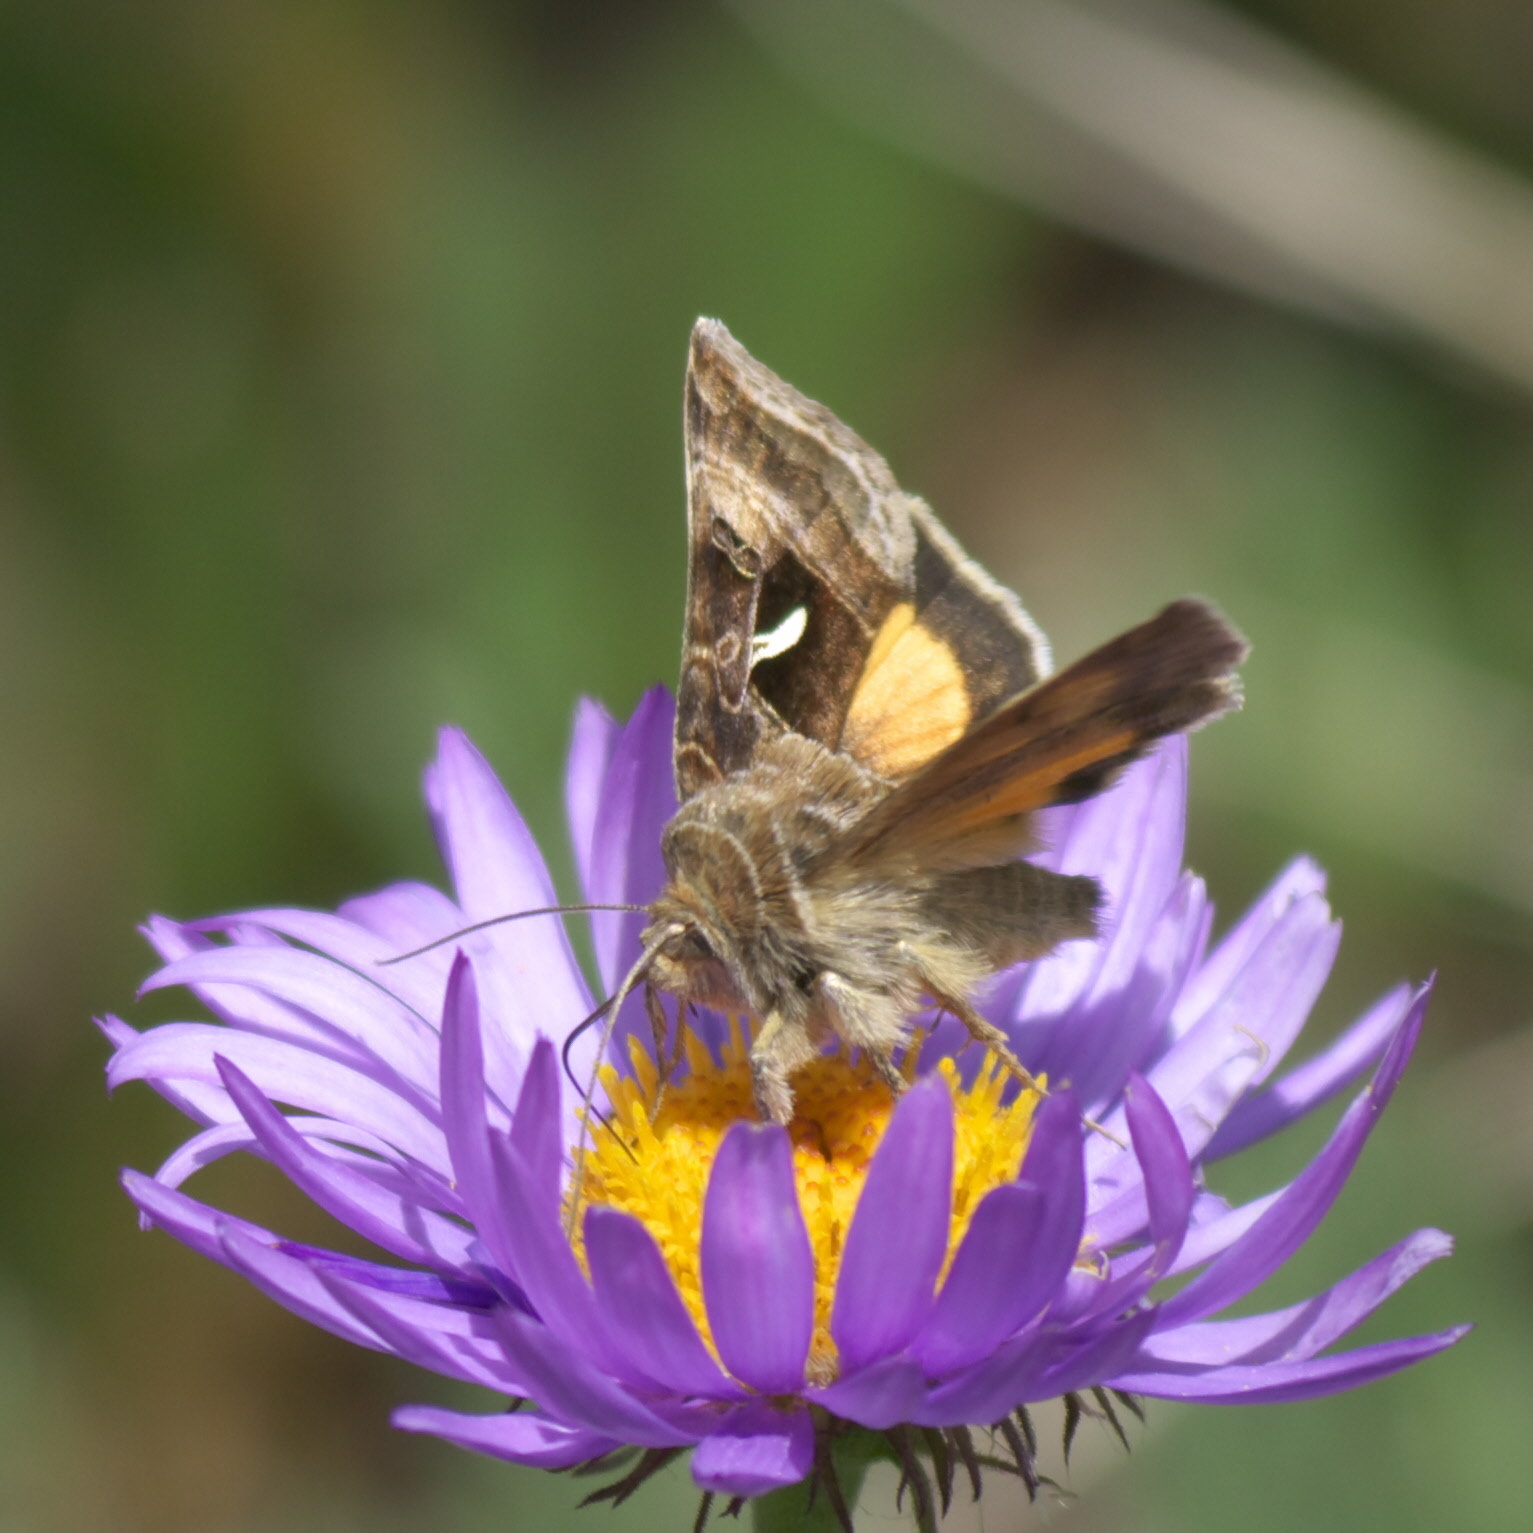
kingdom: Animalia
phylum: Arthropoda
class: Insecta
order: Lepidoptera
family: Noctuidae
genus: Syngrapha
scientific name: Syngrapha ignea
